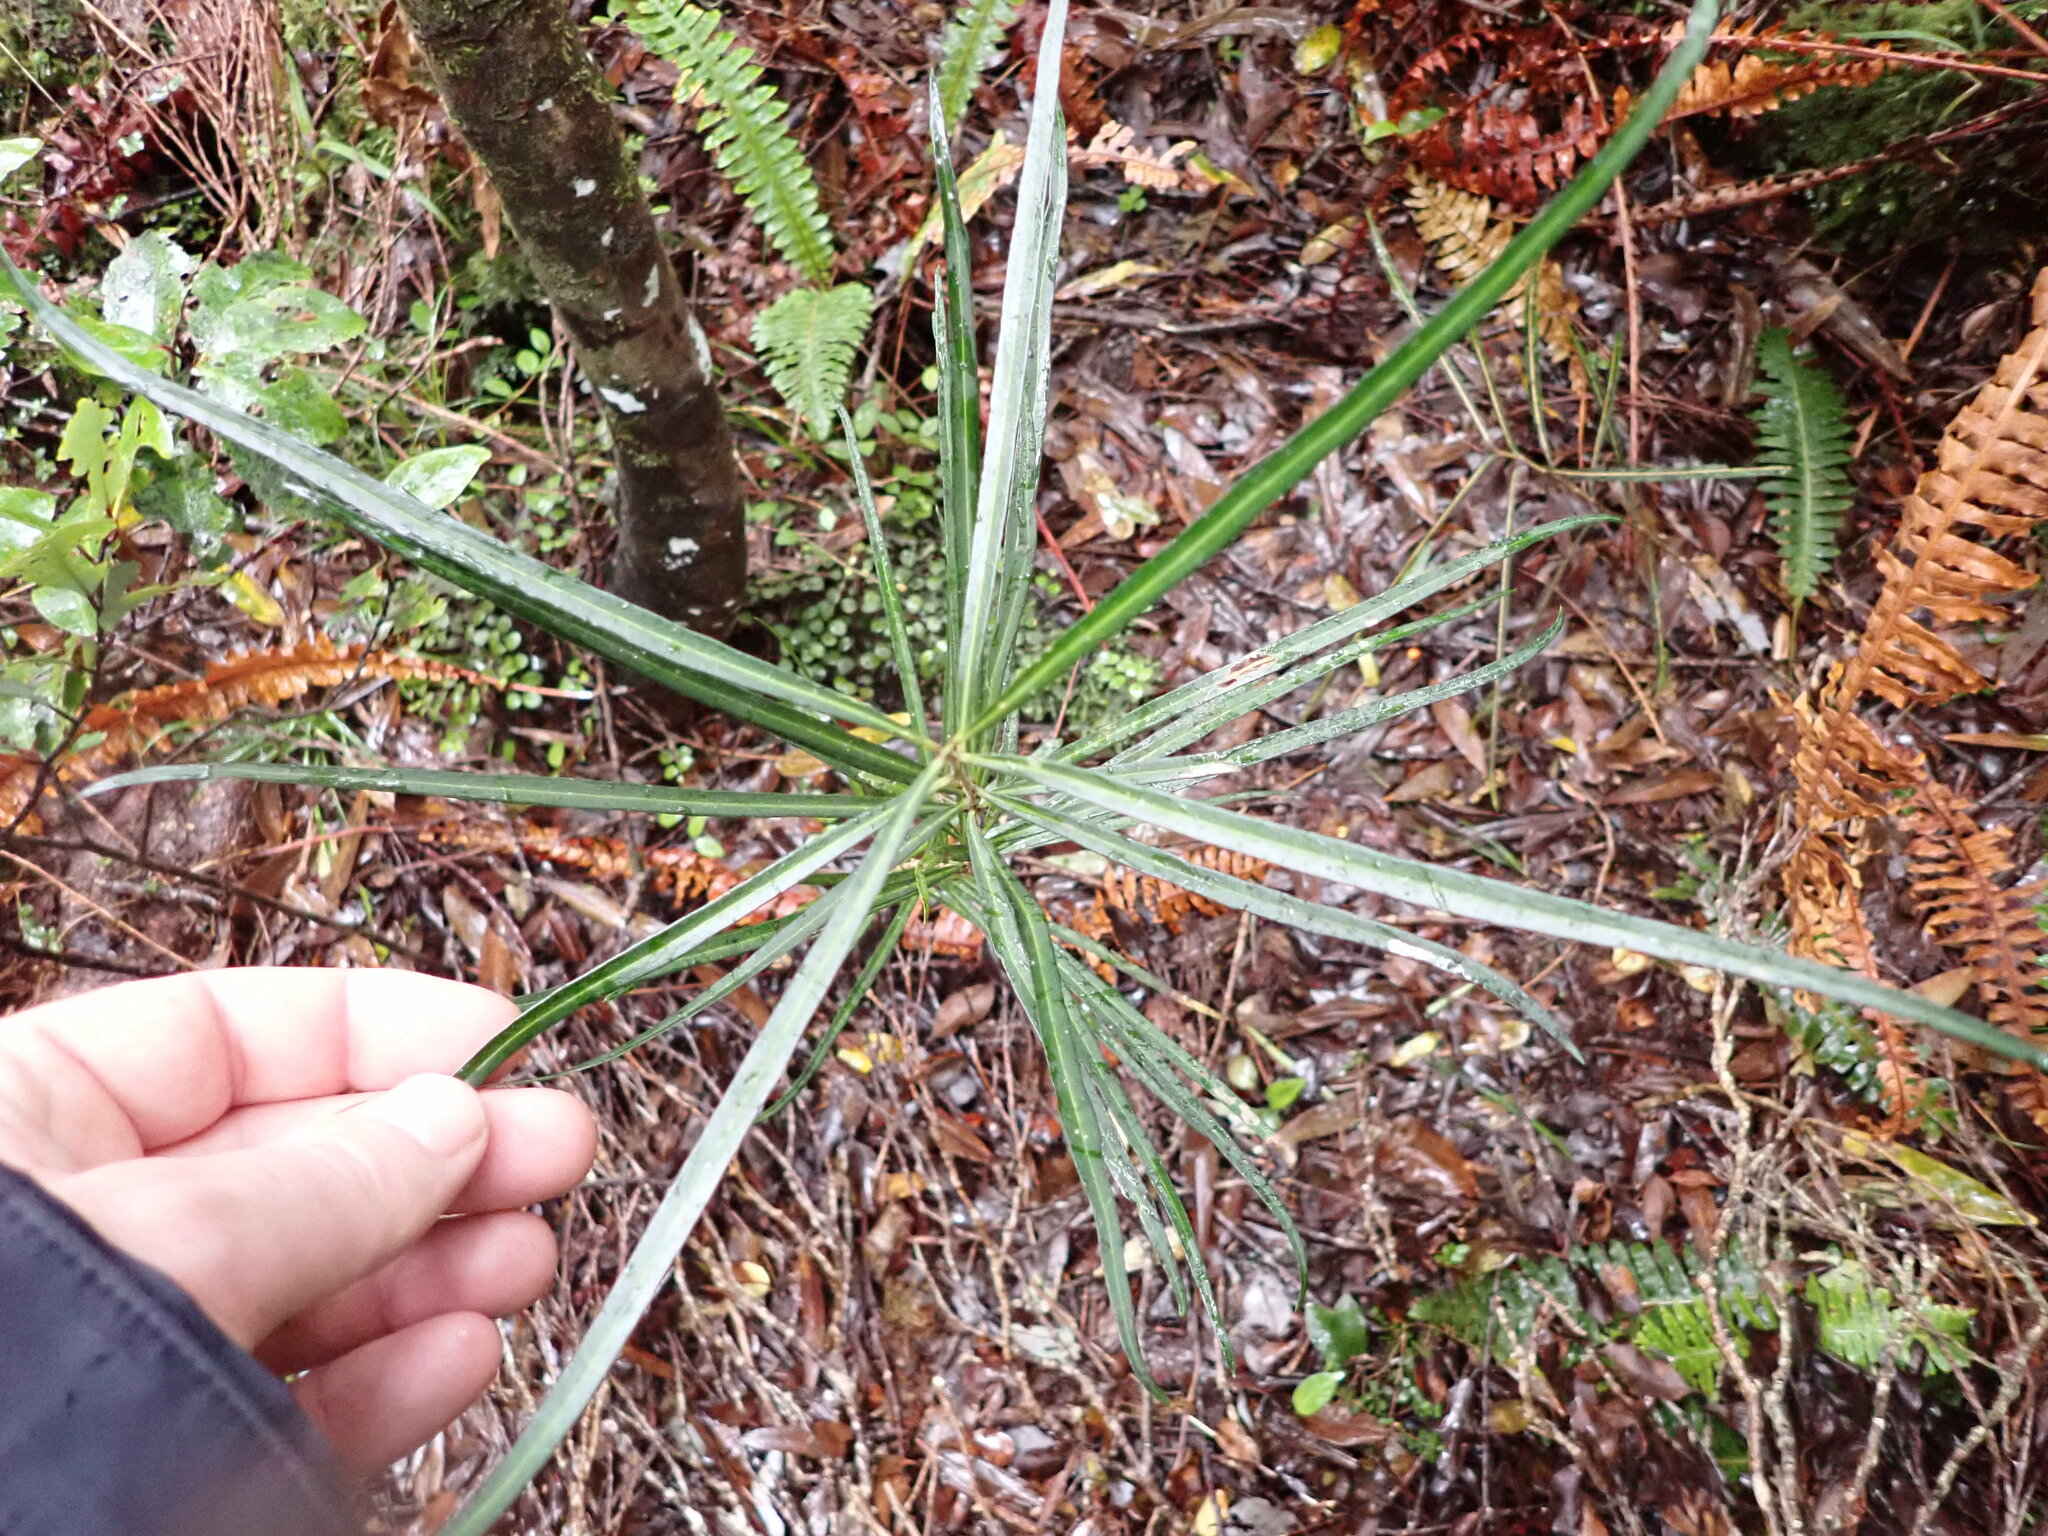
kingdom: Plantae
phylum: Tracheophyta
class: Magnoliopsida
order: Lamiales
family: Oleaceae
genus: Nestegis
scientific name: Nestegis lanceolata
